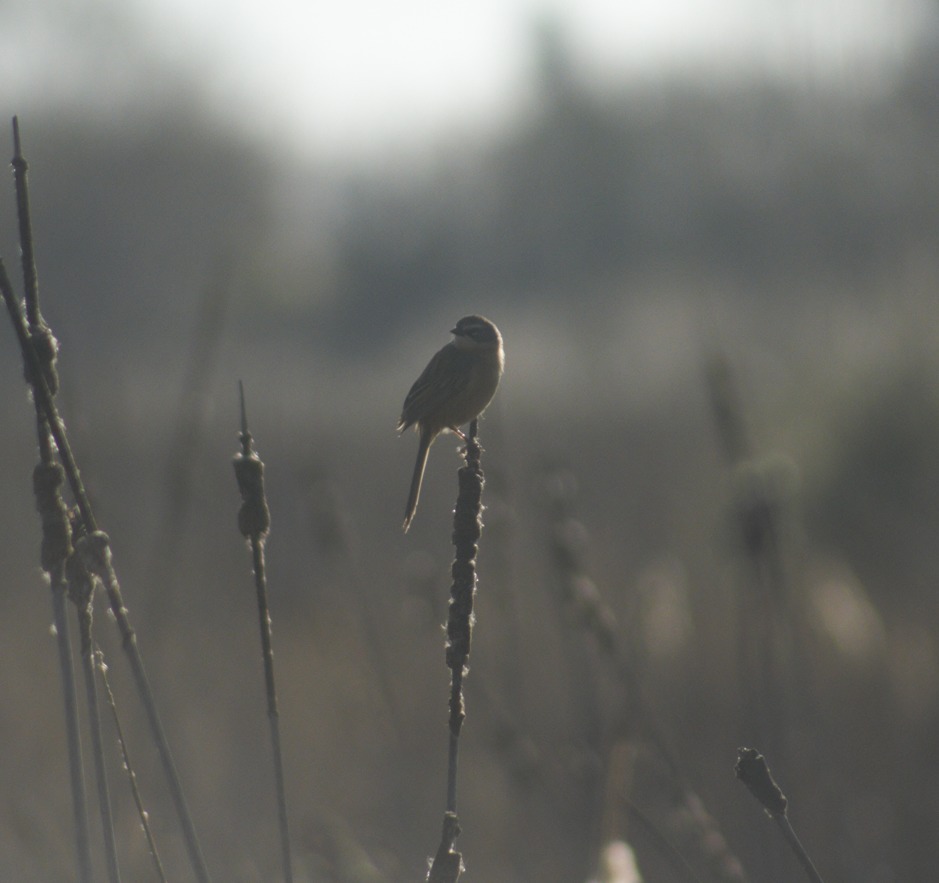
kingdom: Animalia
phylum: Chordata
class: Aves
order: Passeriformes
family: Thraupidae
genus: Donacospiza
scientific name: Donacospiza albifrons
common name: Long-tailed reed finch
